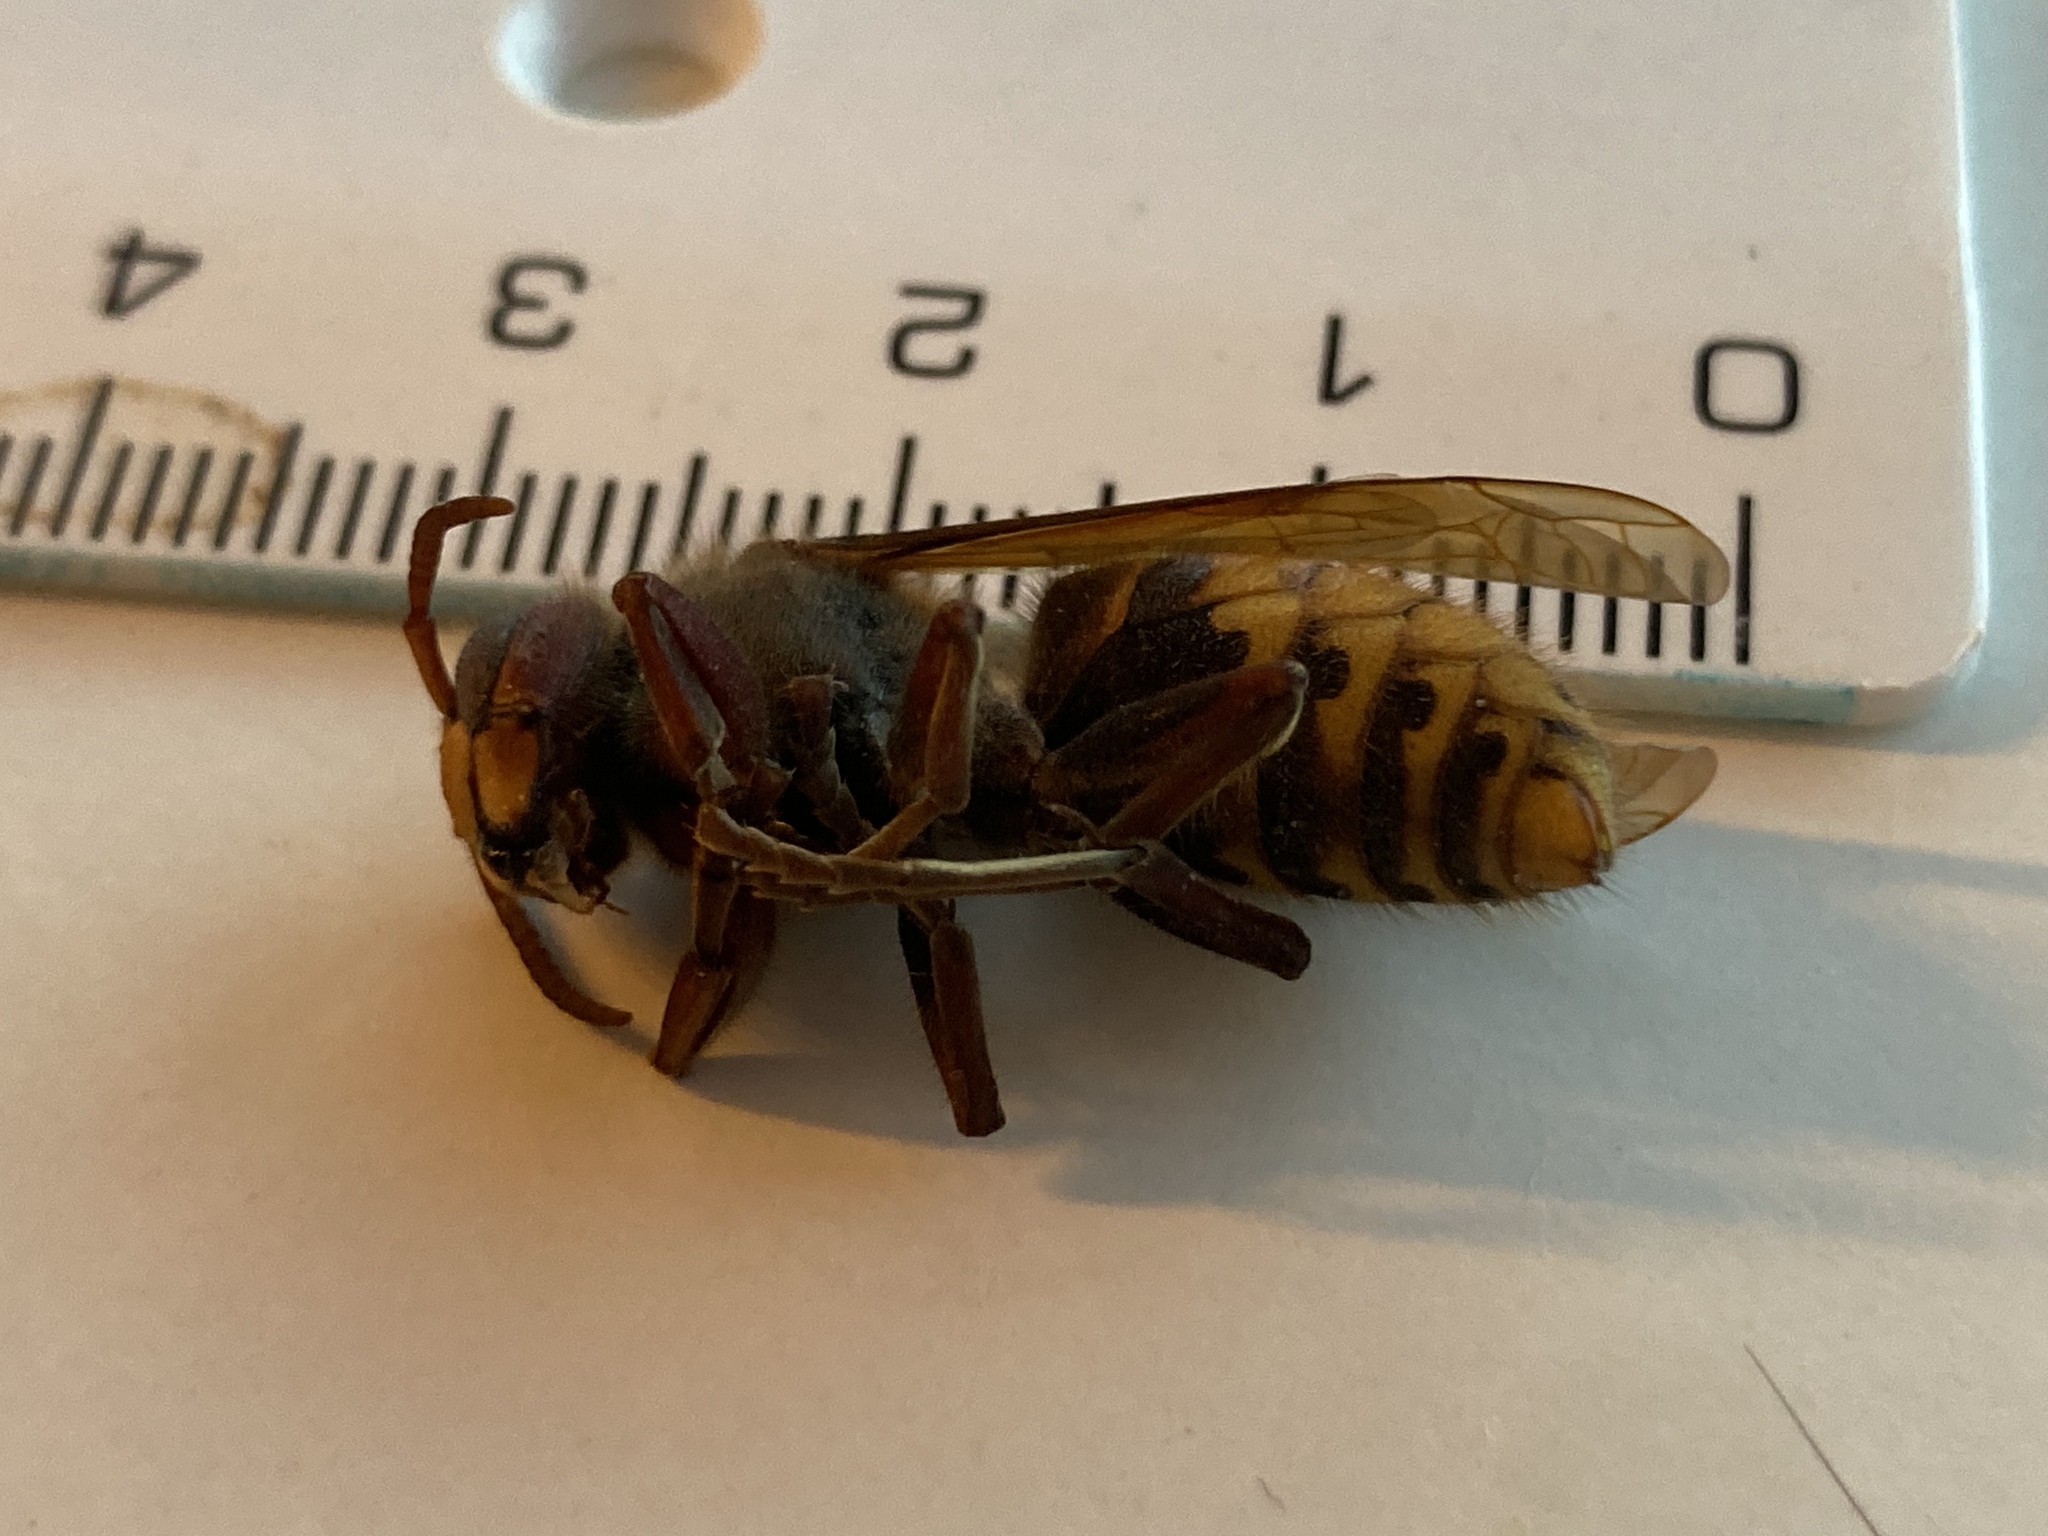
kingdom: Animalia
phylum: Arthropoda
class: Insecta
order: Hymenoptera
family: Vespidae
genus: Vespa
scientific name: Vespa crabro
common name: Hornet
